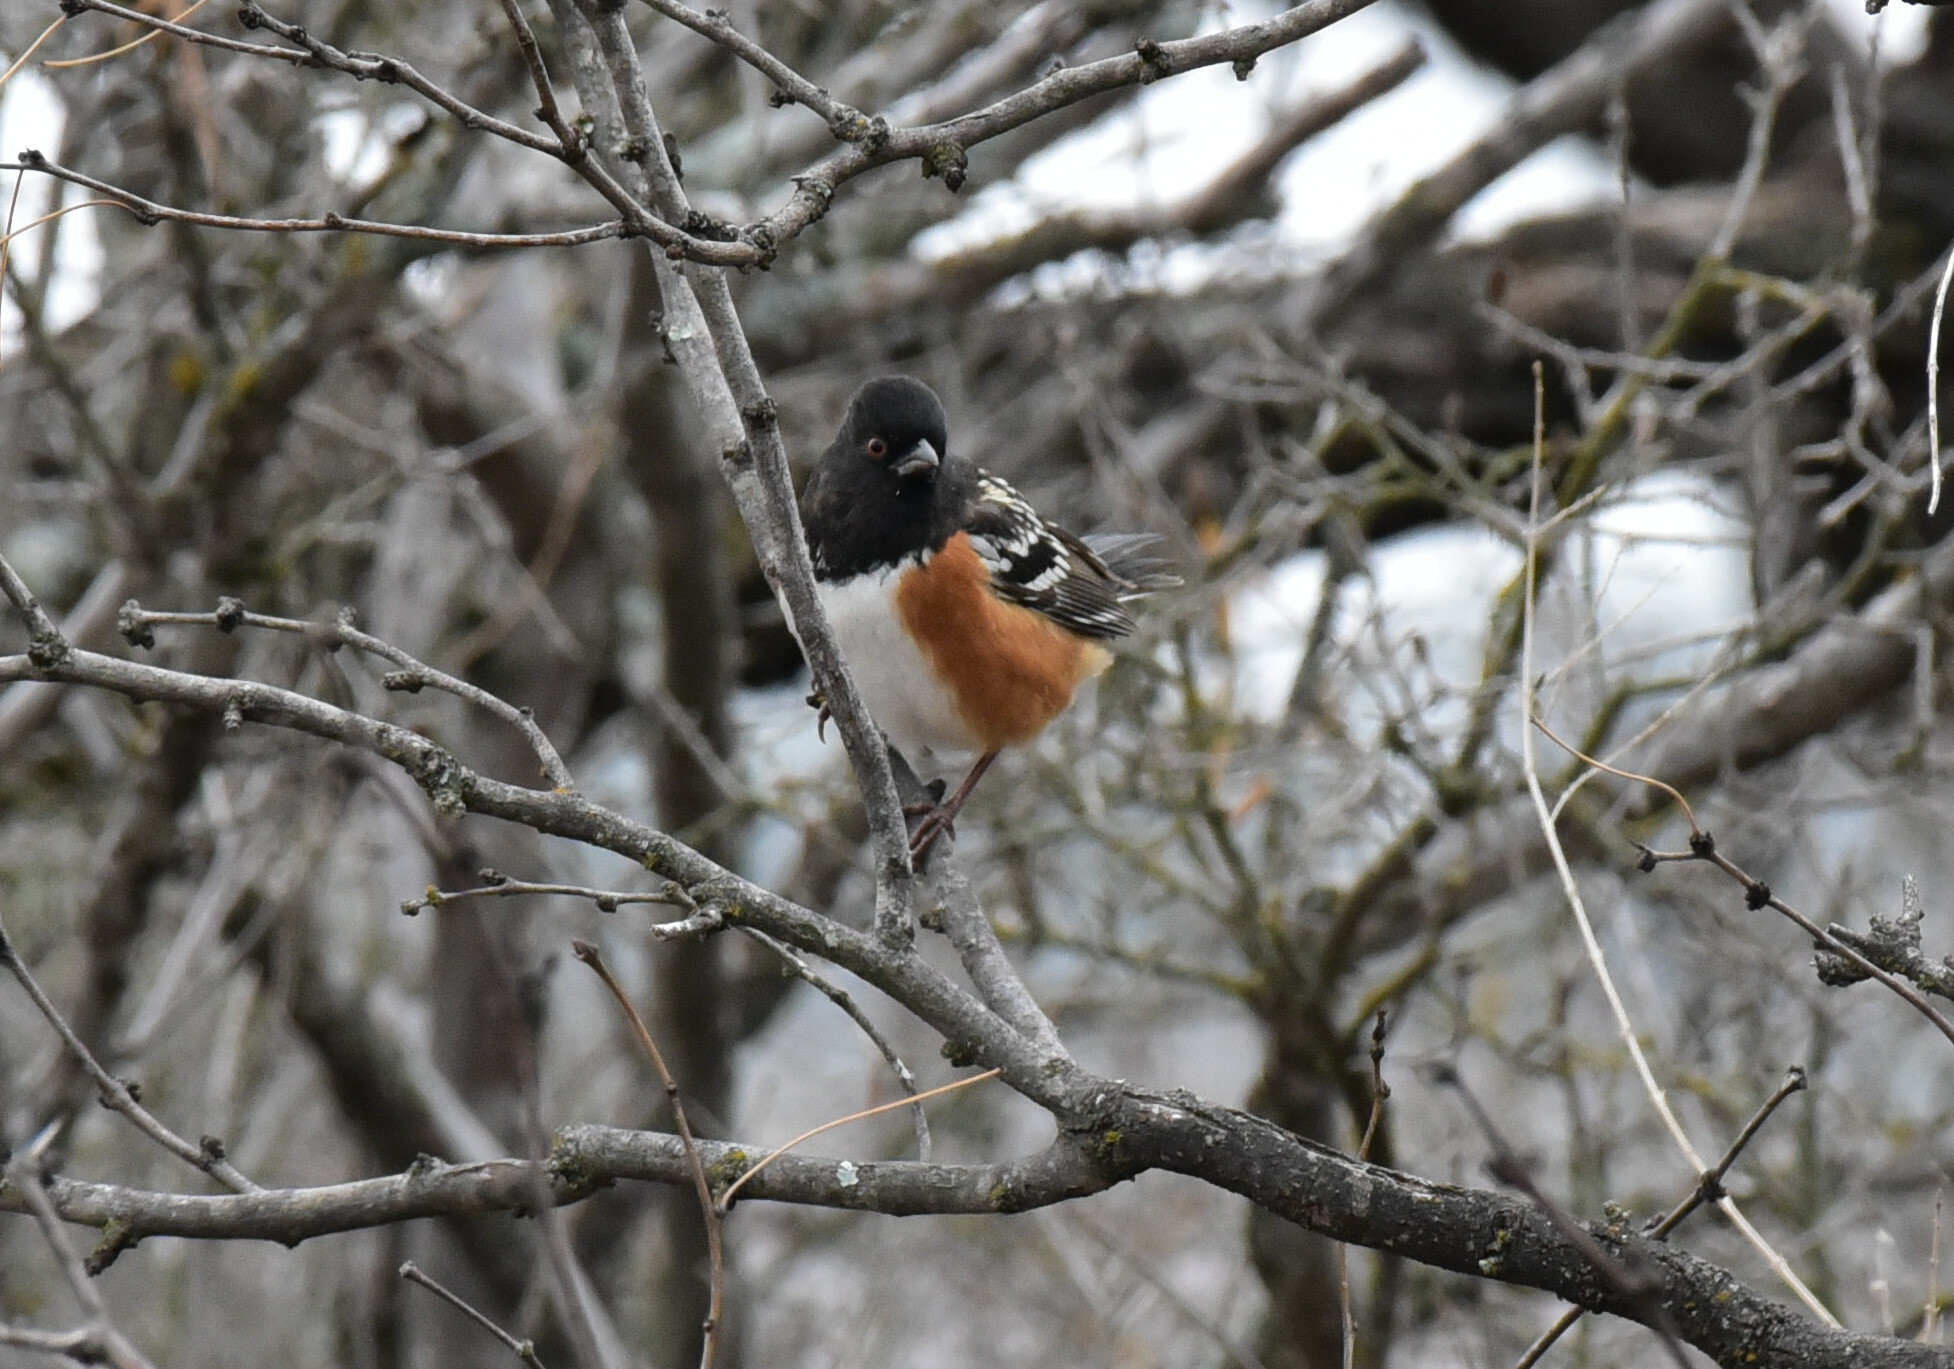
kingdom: Animalia
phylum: Chordata
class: Aves
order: Passeriformes
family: Passerellidae
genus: Pipilo
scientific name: Pipilo maculatus
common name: Spotted towhee
